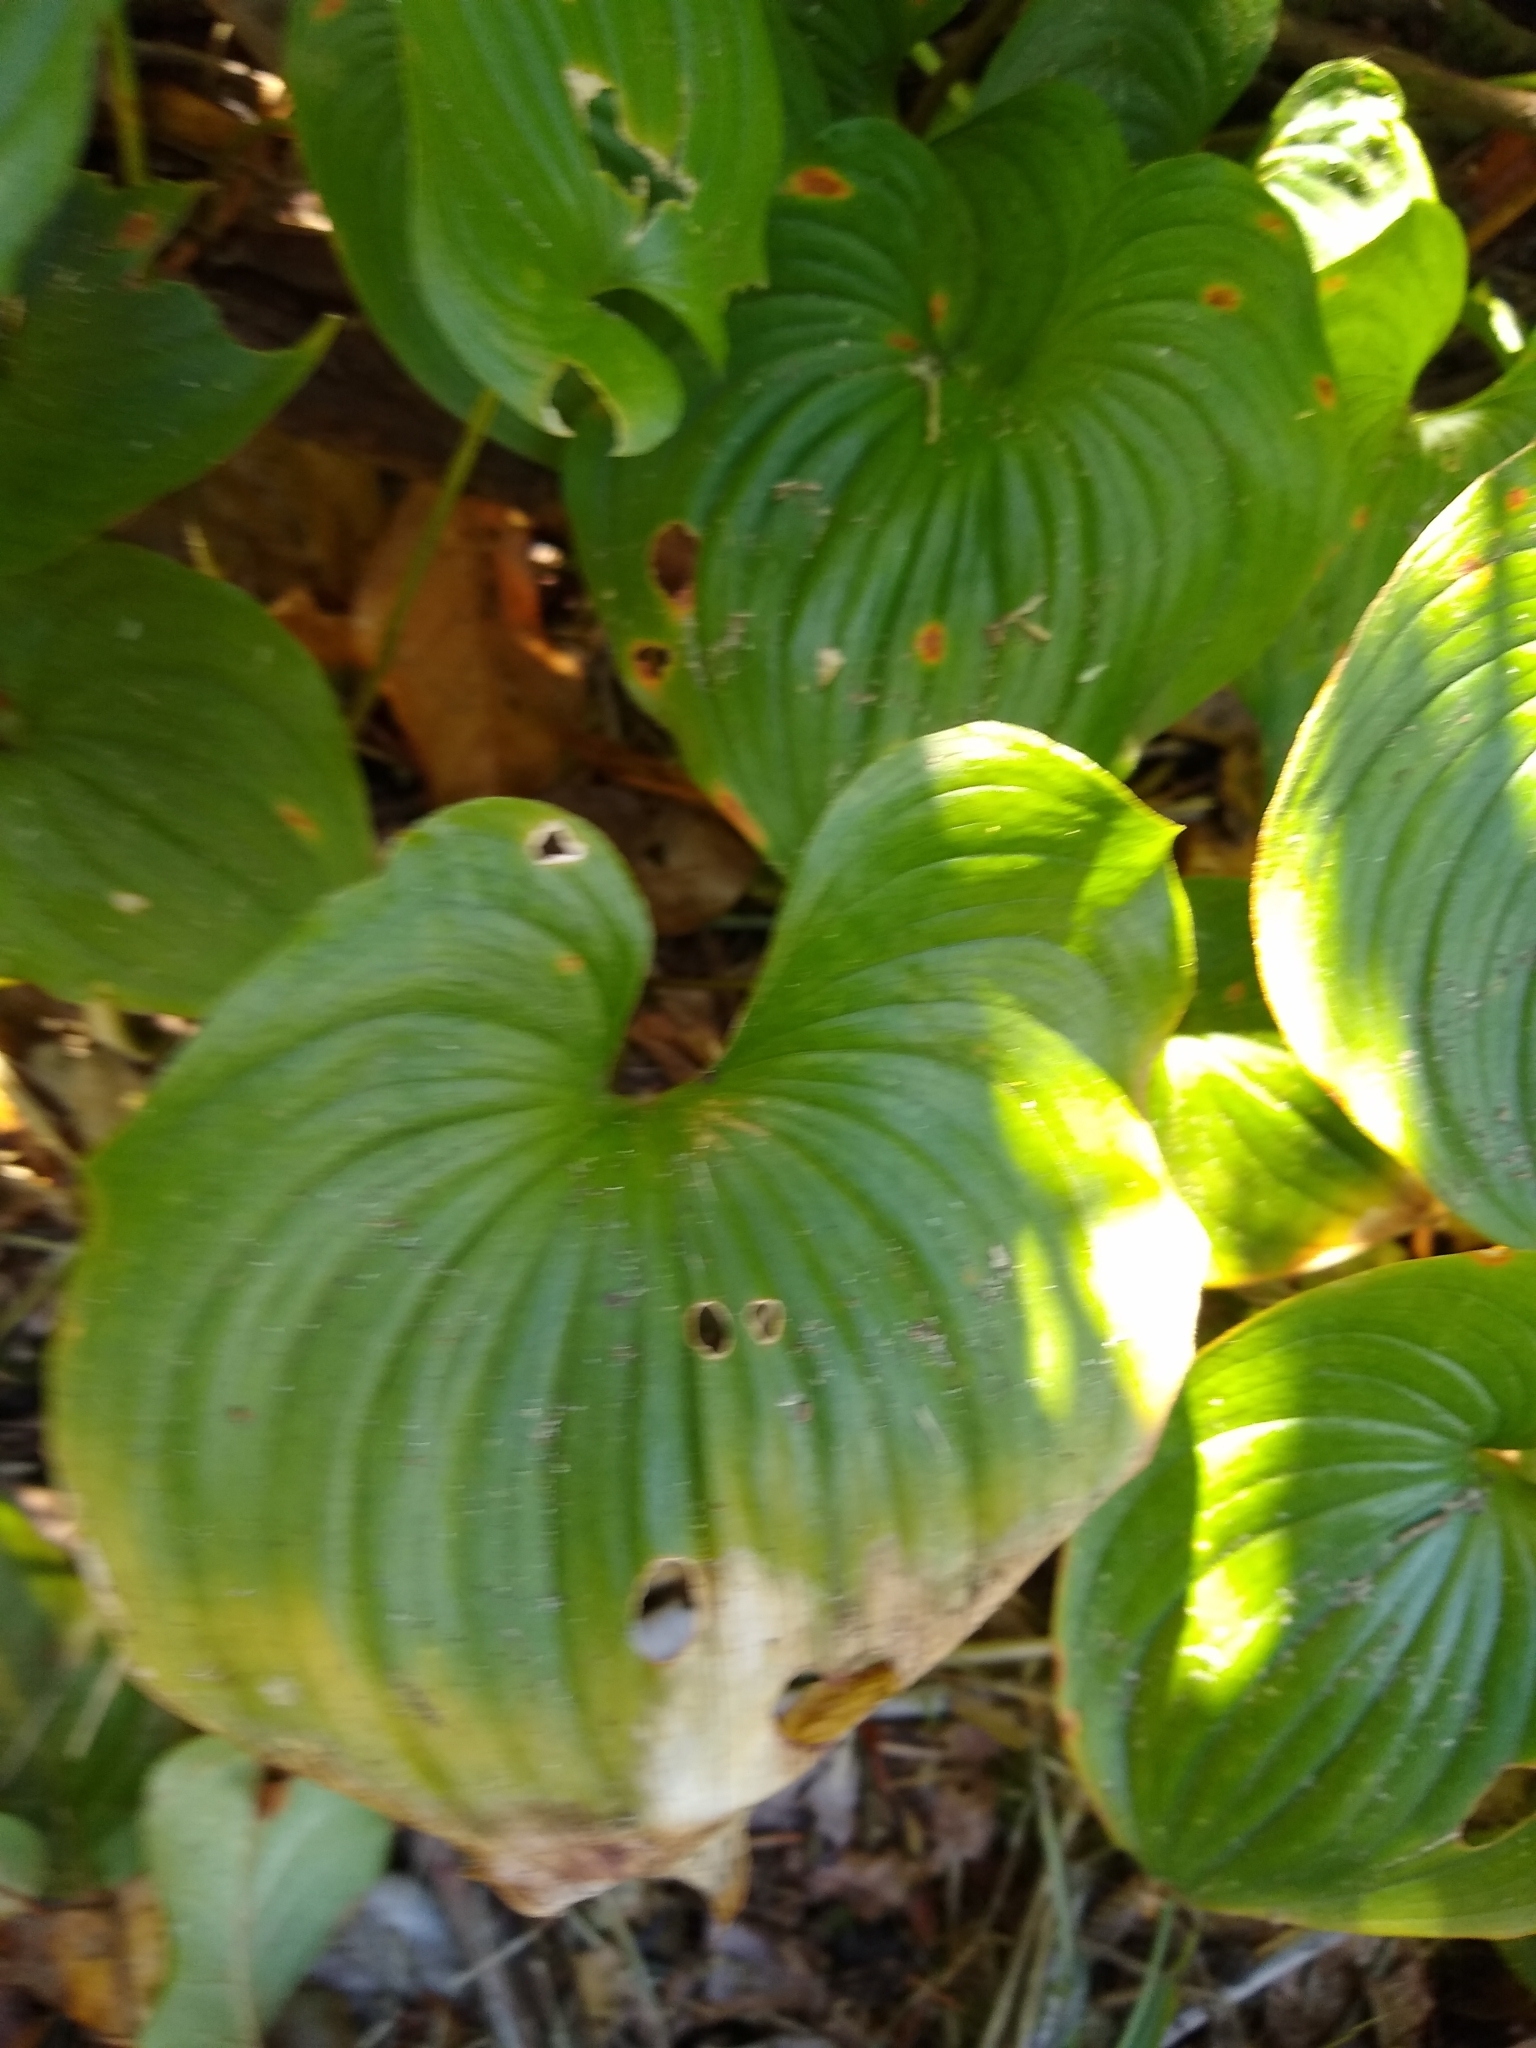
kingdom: Plantae
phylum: Tracheophyta
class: Liliopsida
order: Asparagales
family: Asparagaceae
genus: Maianthemum
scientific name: Maianthemum dilatatum
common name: False lily-of-the-valley
